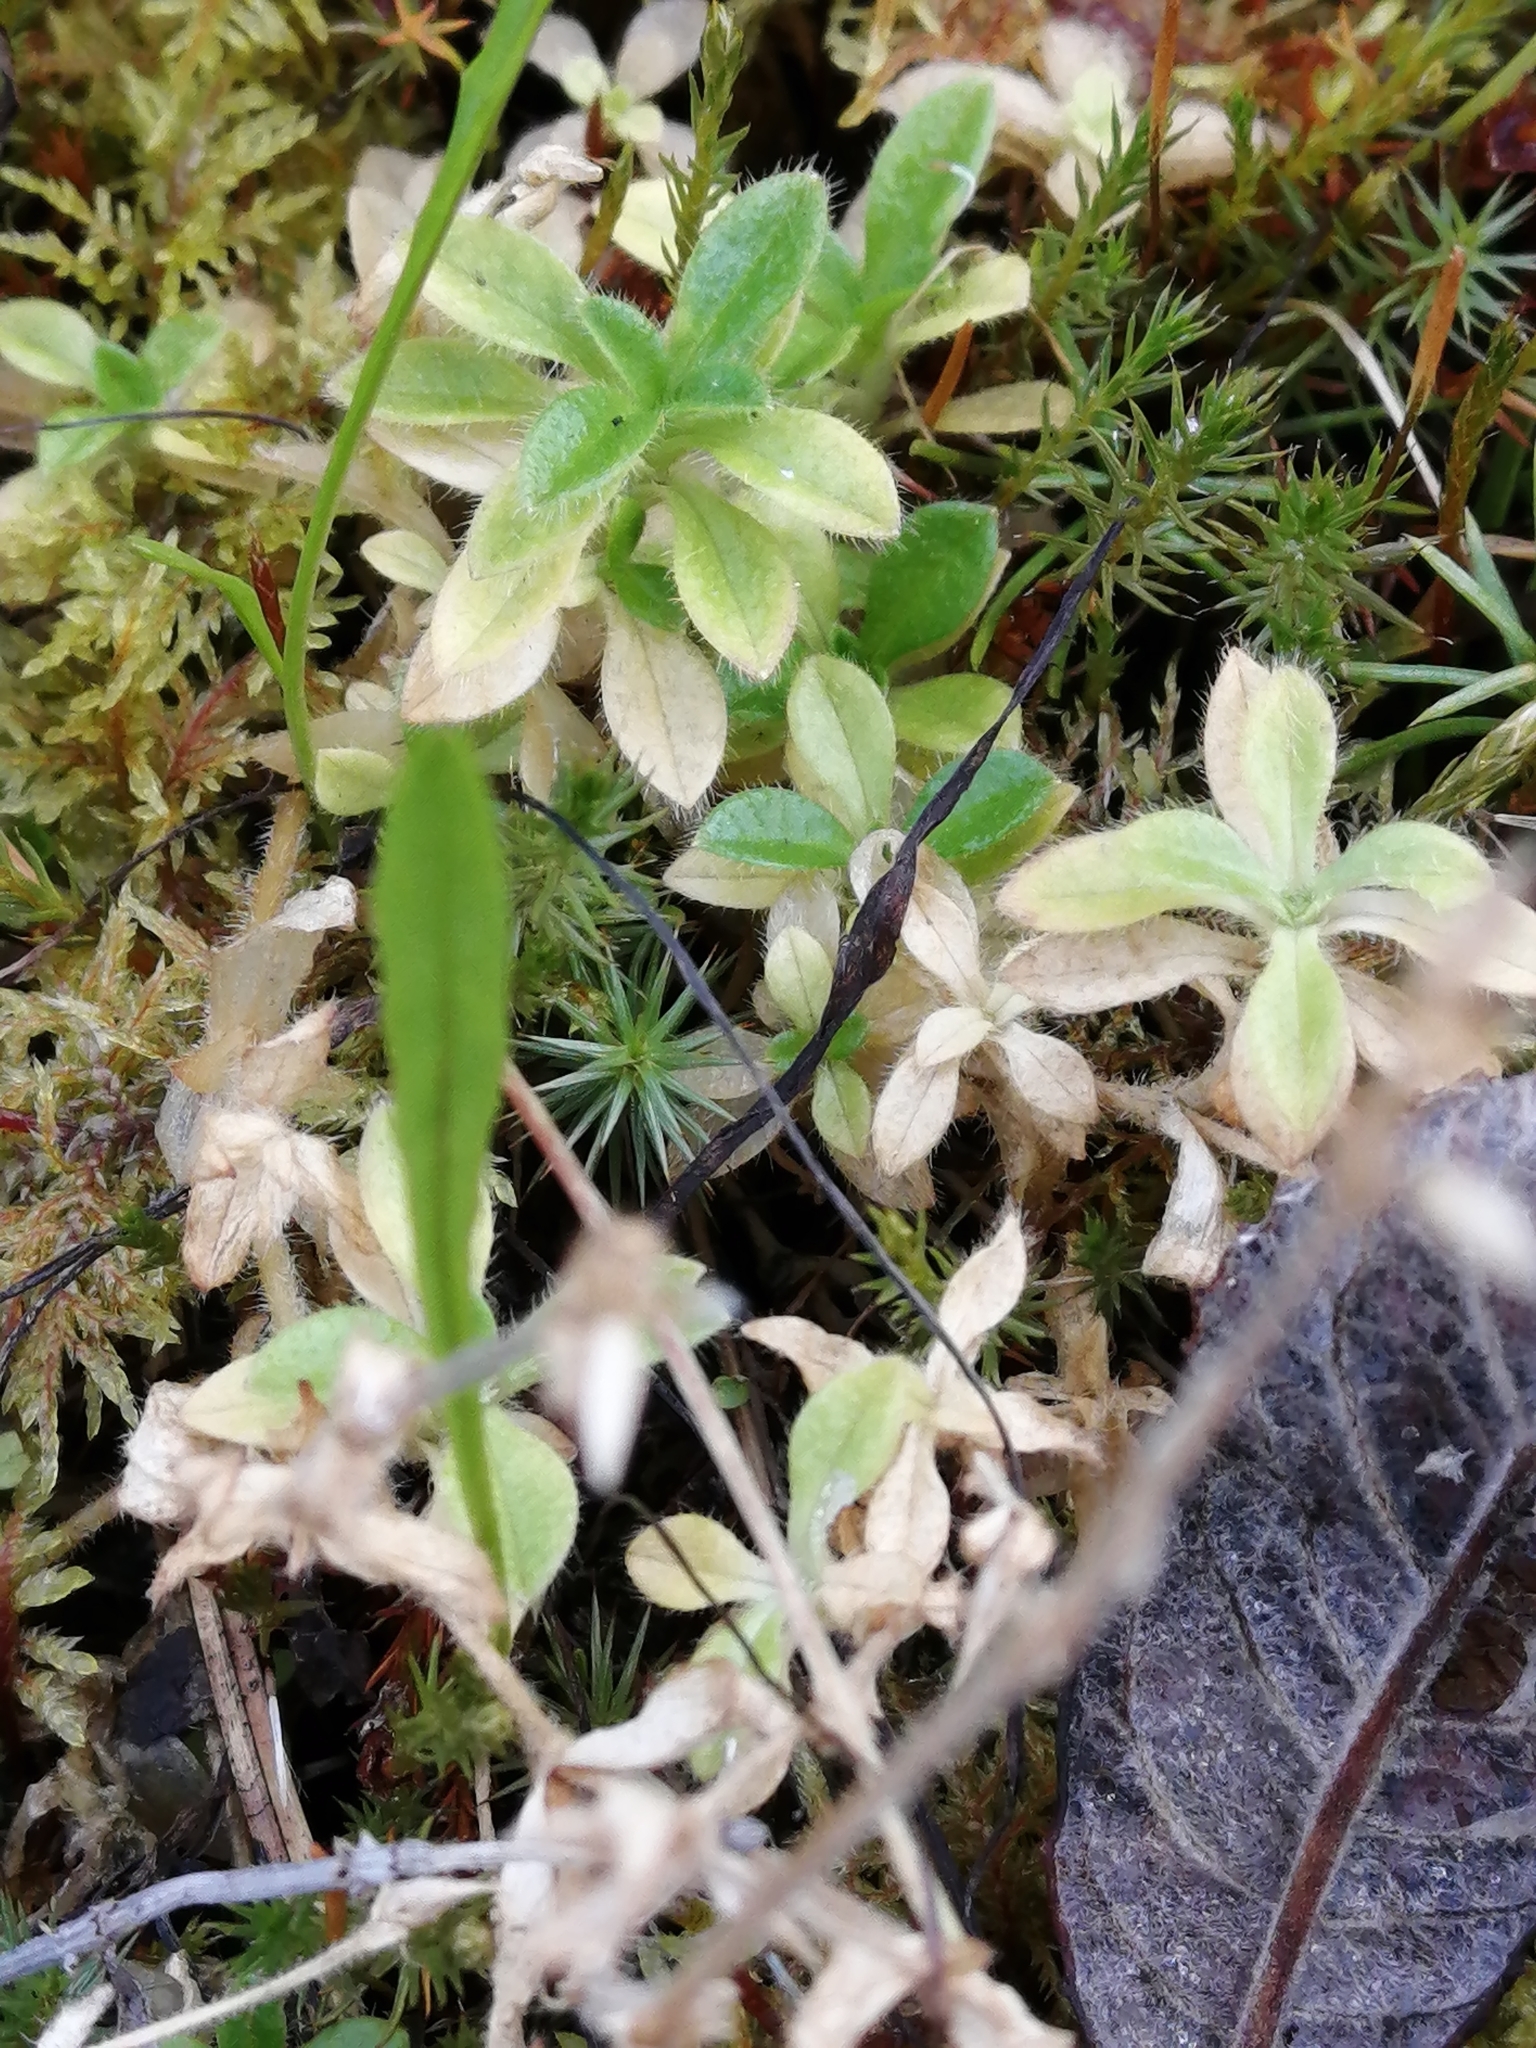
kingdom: Plantae
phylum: Tracheophyta
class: Magnoliopsida
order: Caryophyllales
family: Caryophyllaceae
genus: Cerastium
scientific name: Cerastium holosteoides
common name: Big chickweed
